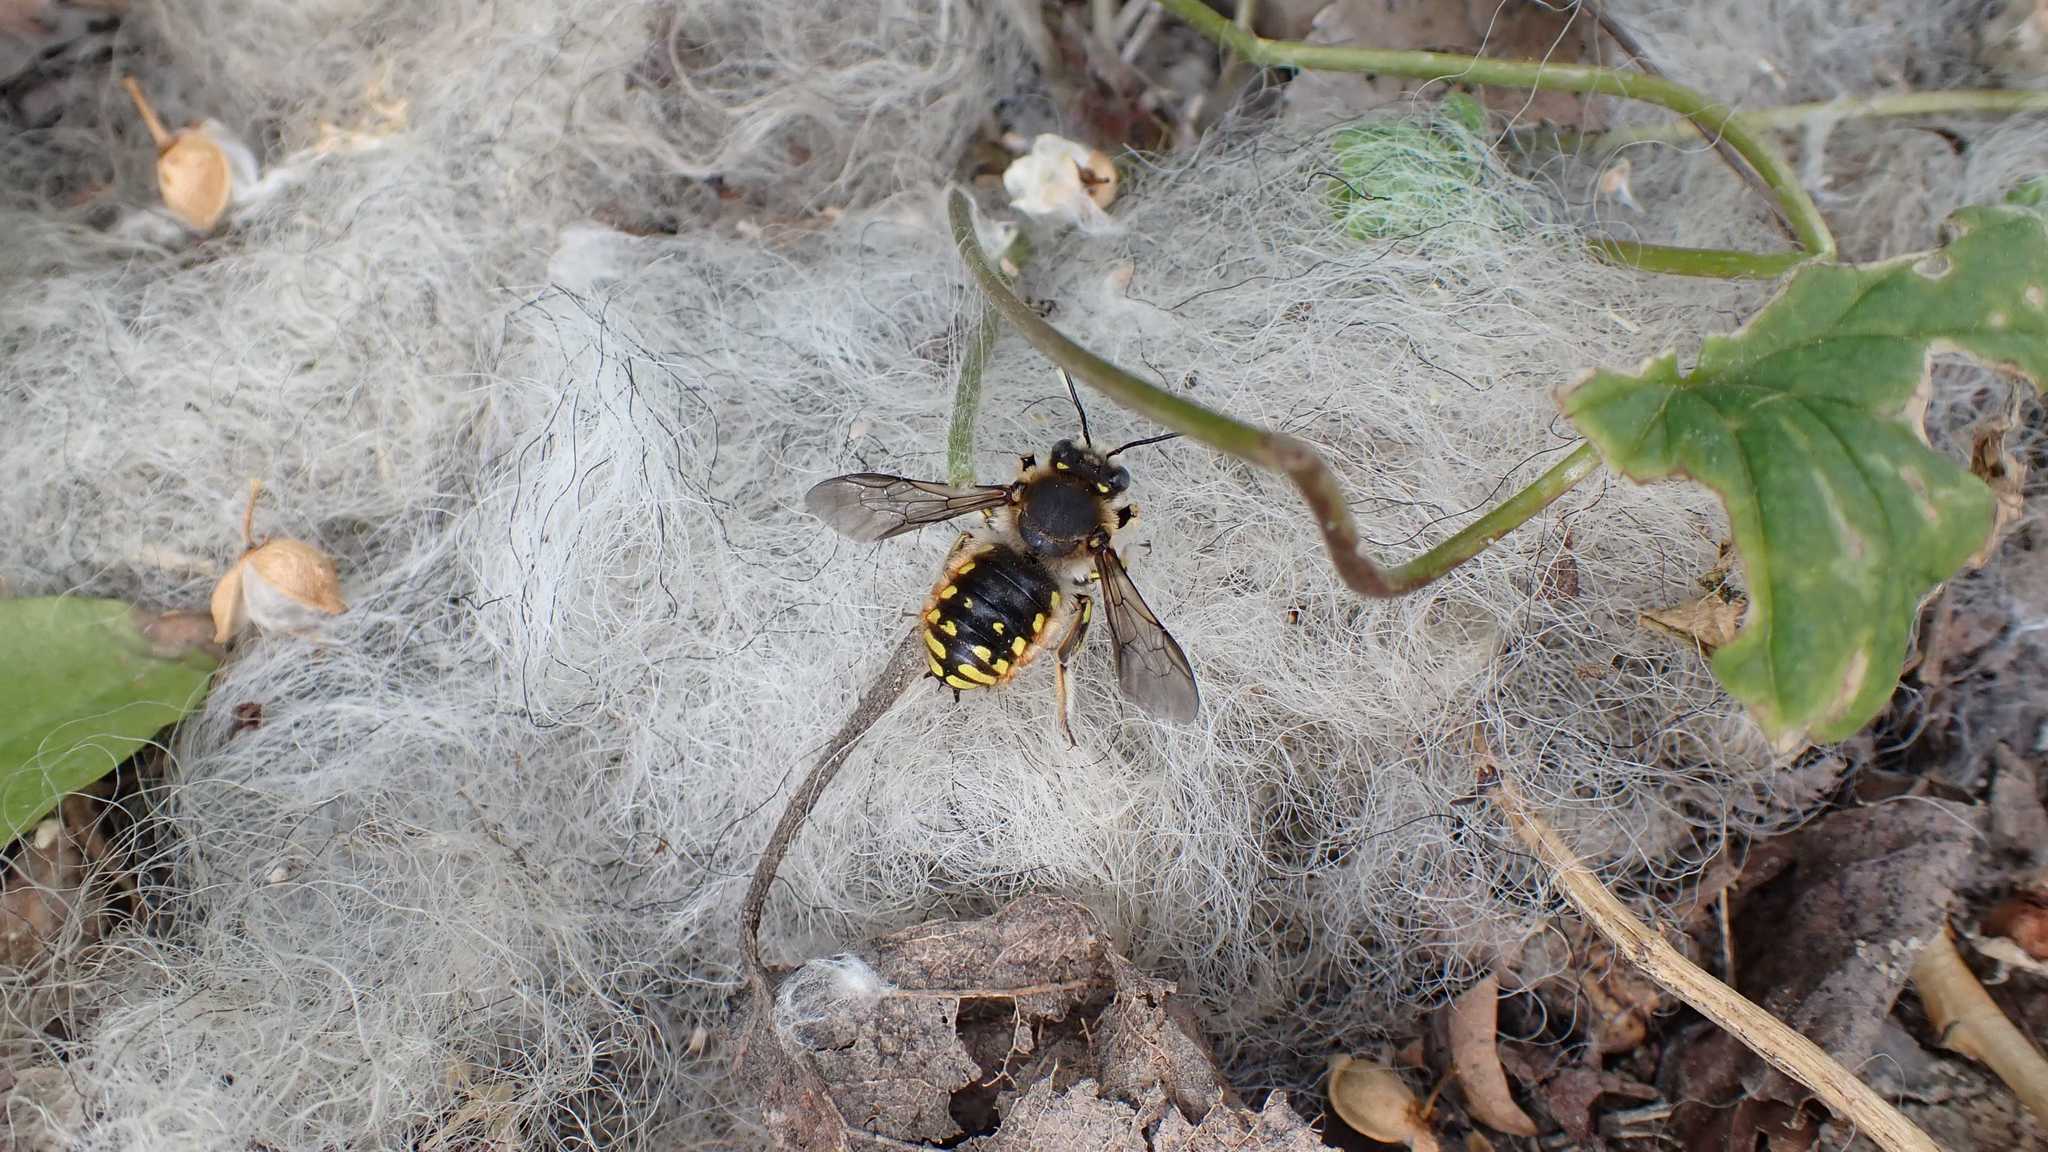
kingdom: Animalia
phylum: Arthropoda
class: Insecta
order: Hymenoptera
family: Megachilidae
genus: Anthidium
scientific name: Anthidium manicatum
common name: Wool carder bee
